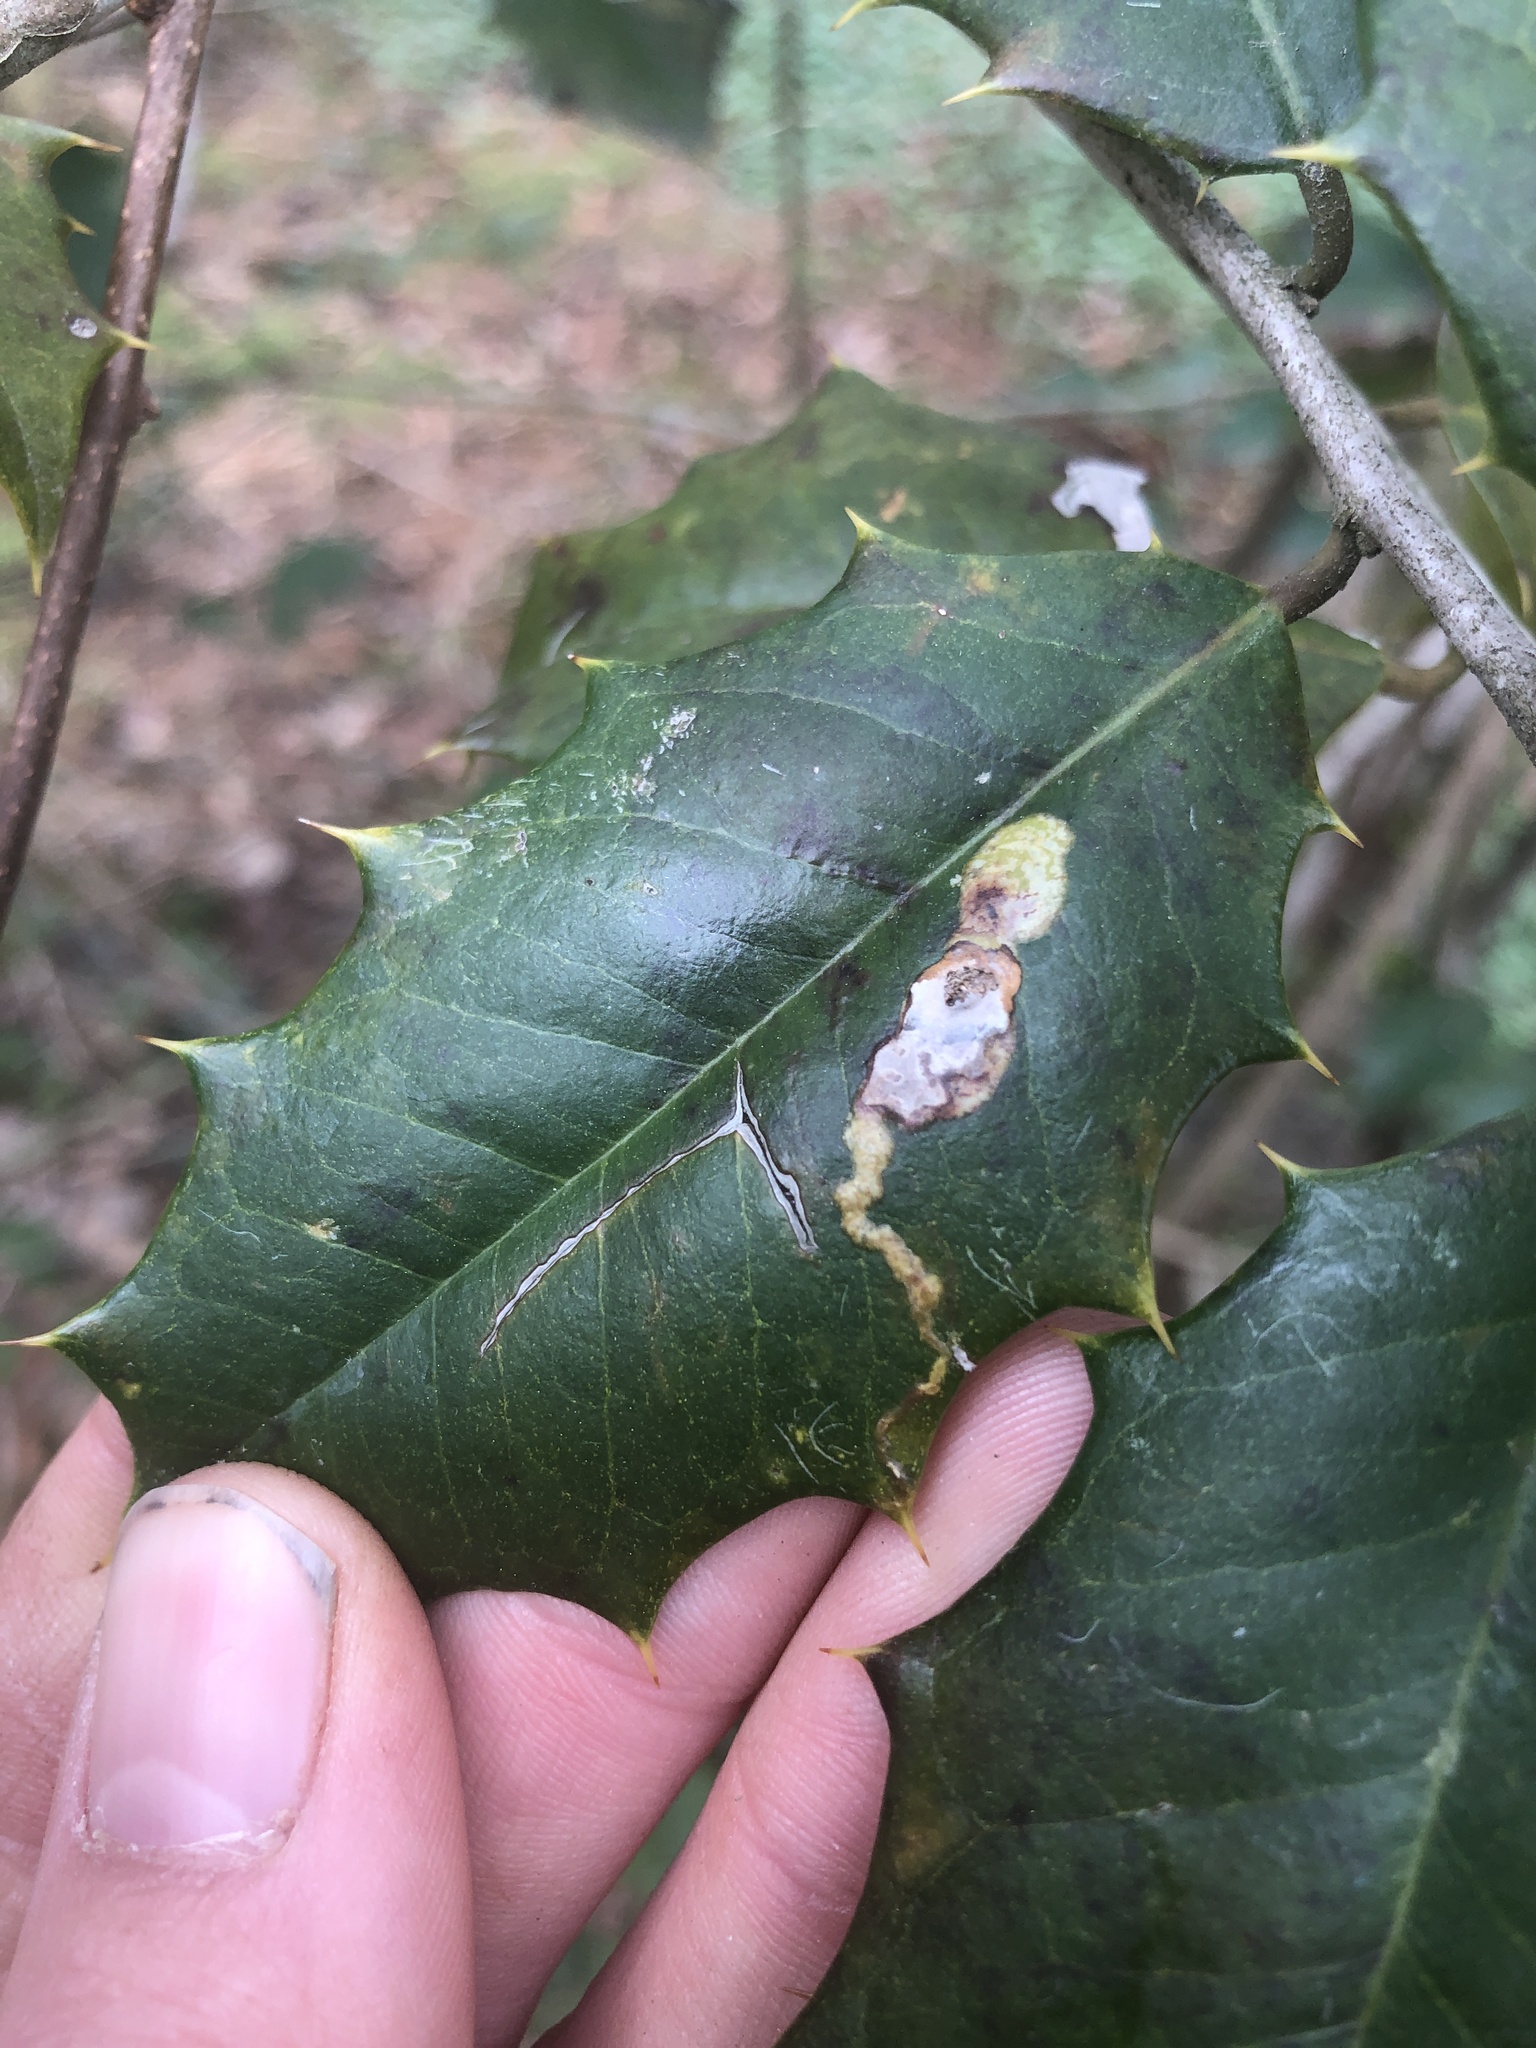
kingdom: Animalia
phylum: Arthropoda
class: Insecta
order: Diptera
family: Agromyzidae
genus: Phytomyza
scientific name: Phytomyza ilicicola
